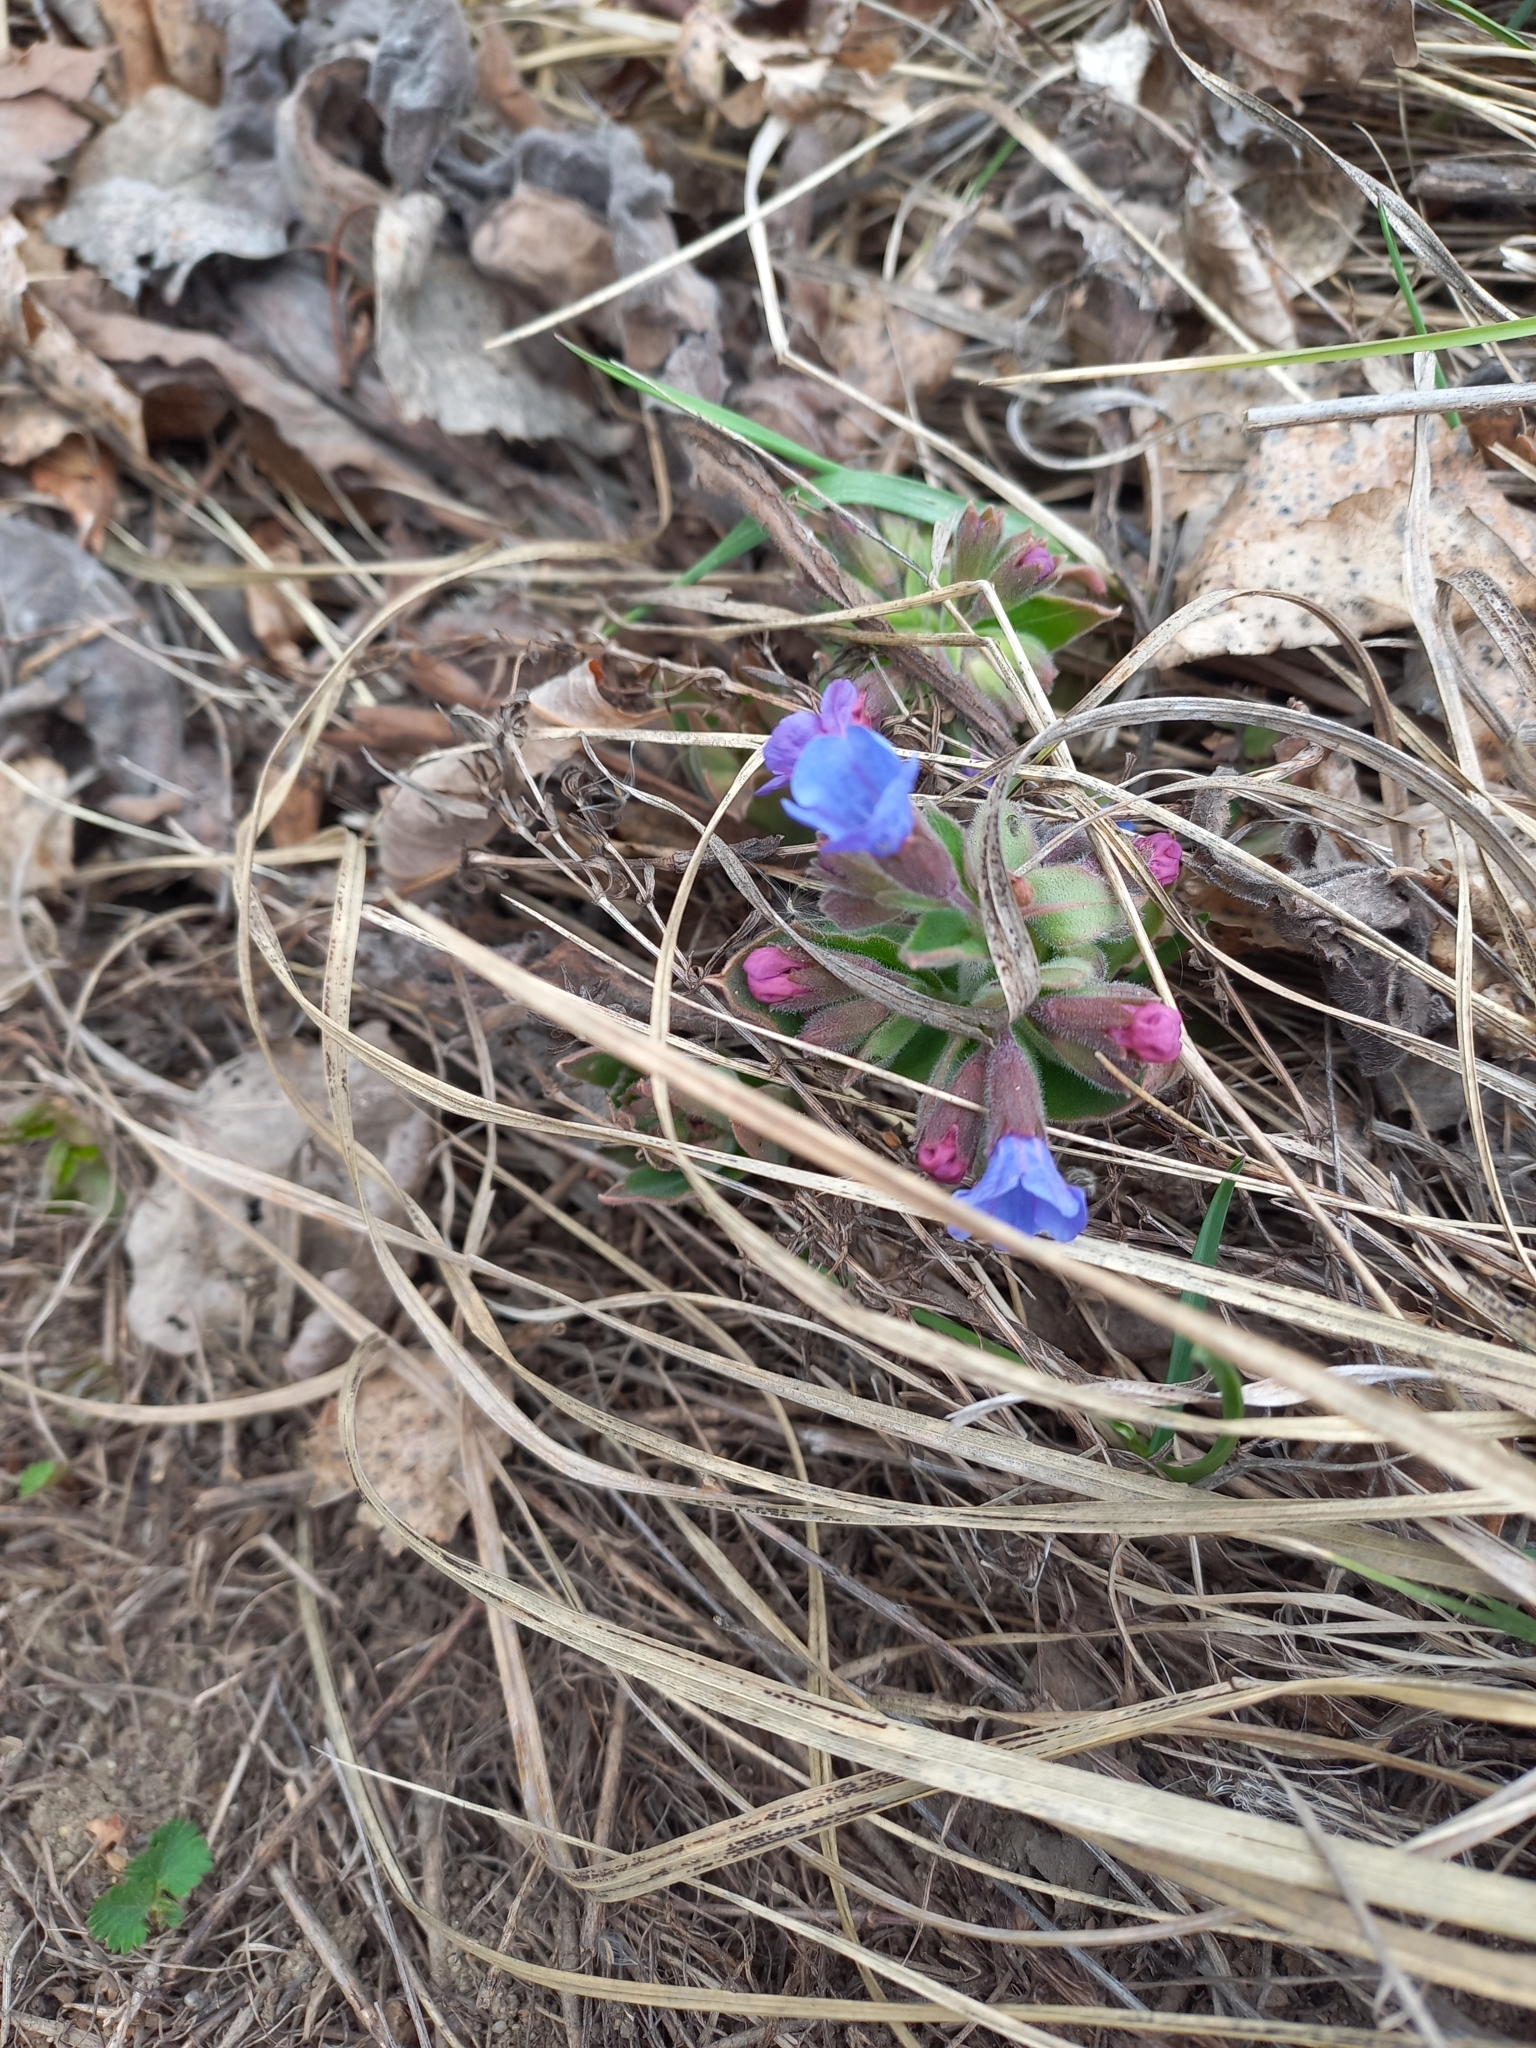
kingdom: Plantae
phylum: Tracheophyta
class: Magnoliopsida
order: Boraginales
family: Boraginaceae
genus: Pulmonaria
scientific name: Pulmonaria mollis
